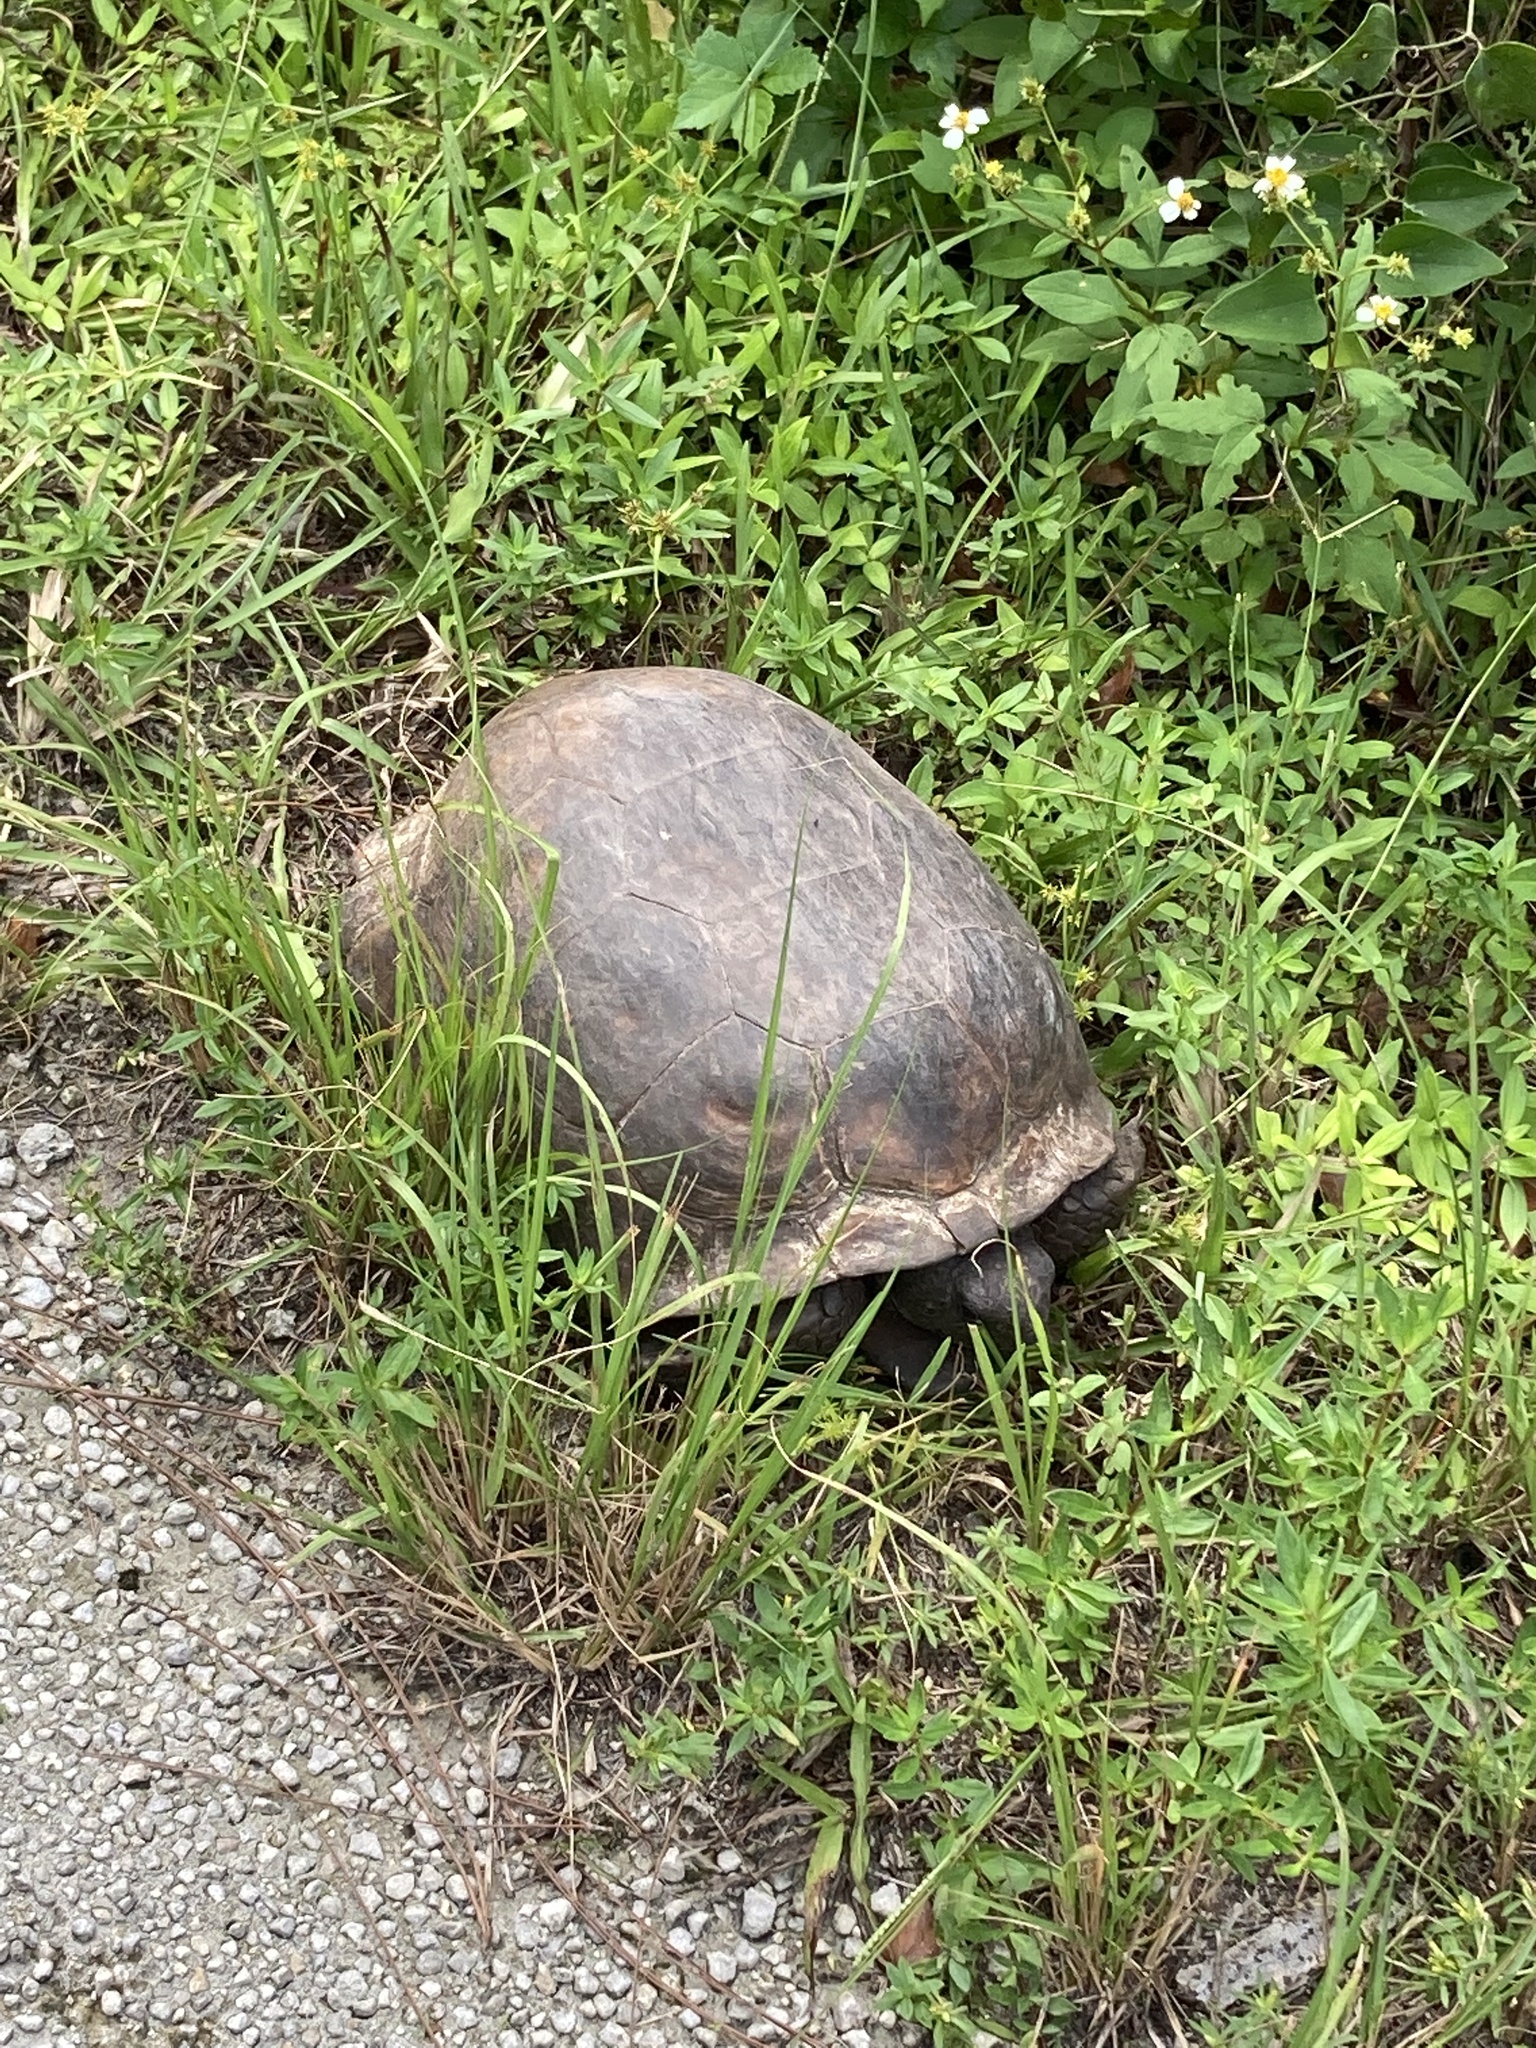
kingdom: Animalia
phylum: Chordata
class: Testudines
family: Testudinidae
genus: Gopherus
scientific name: Gopherus polyphemus
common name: Florida gopher tortoise
